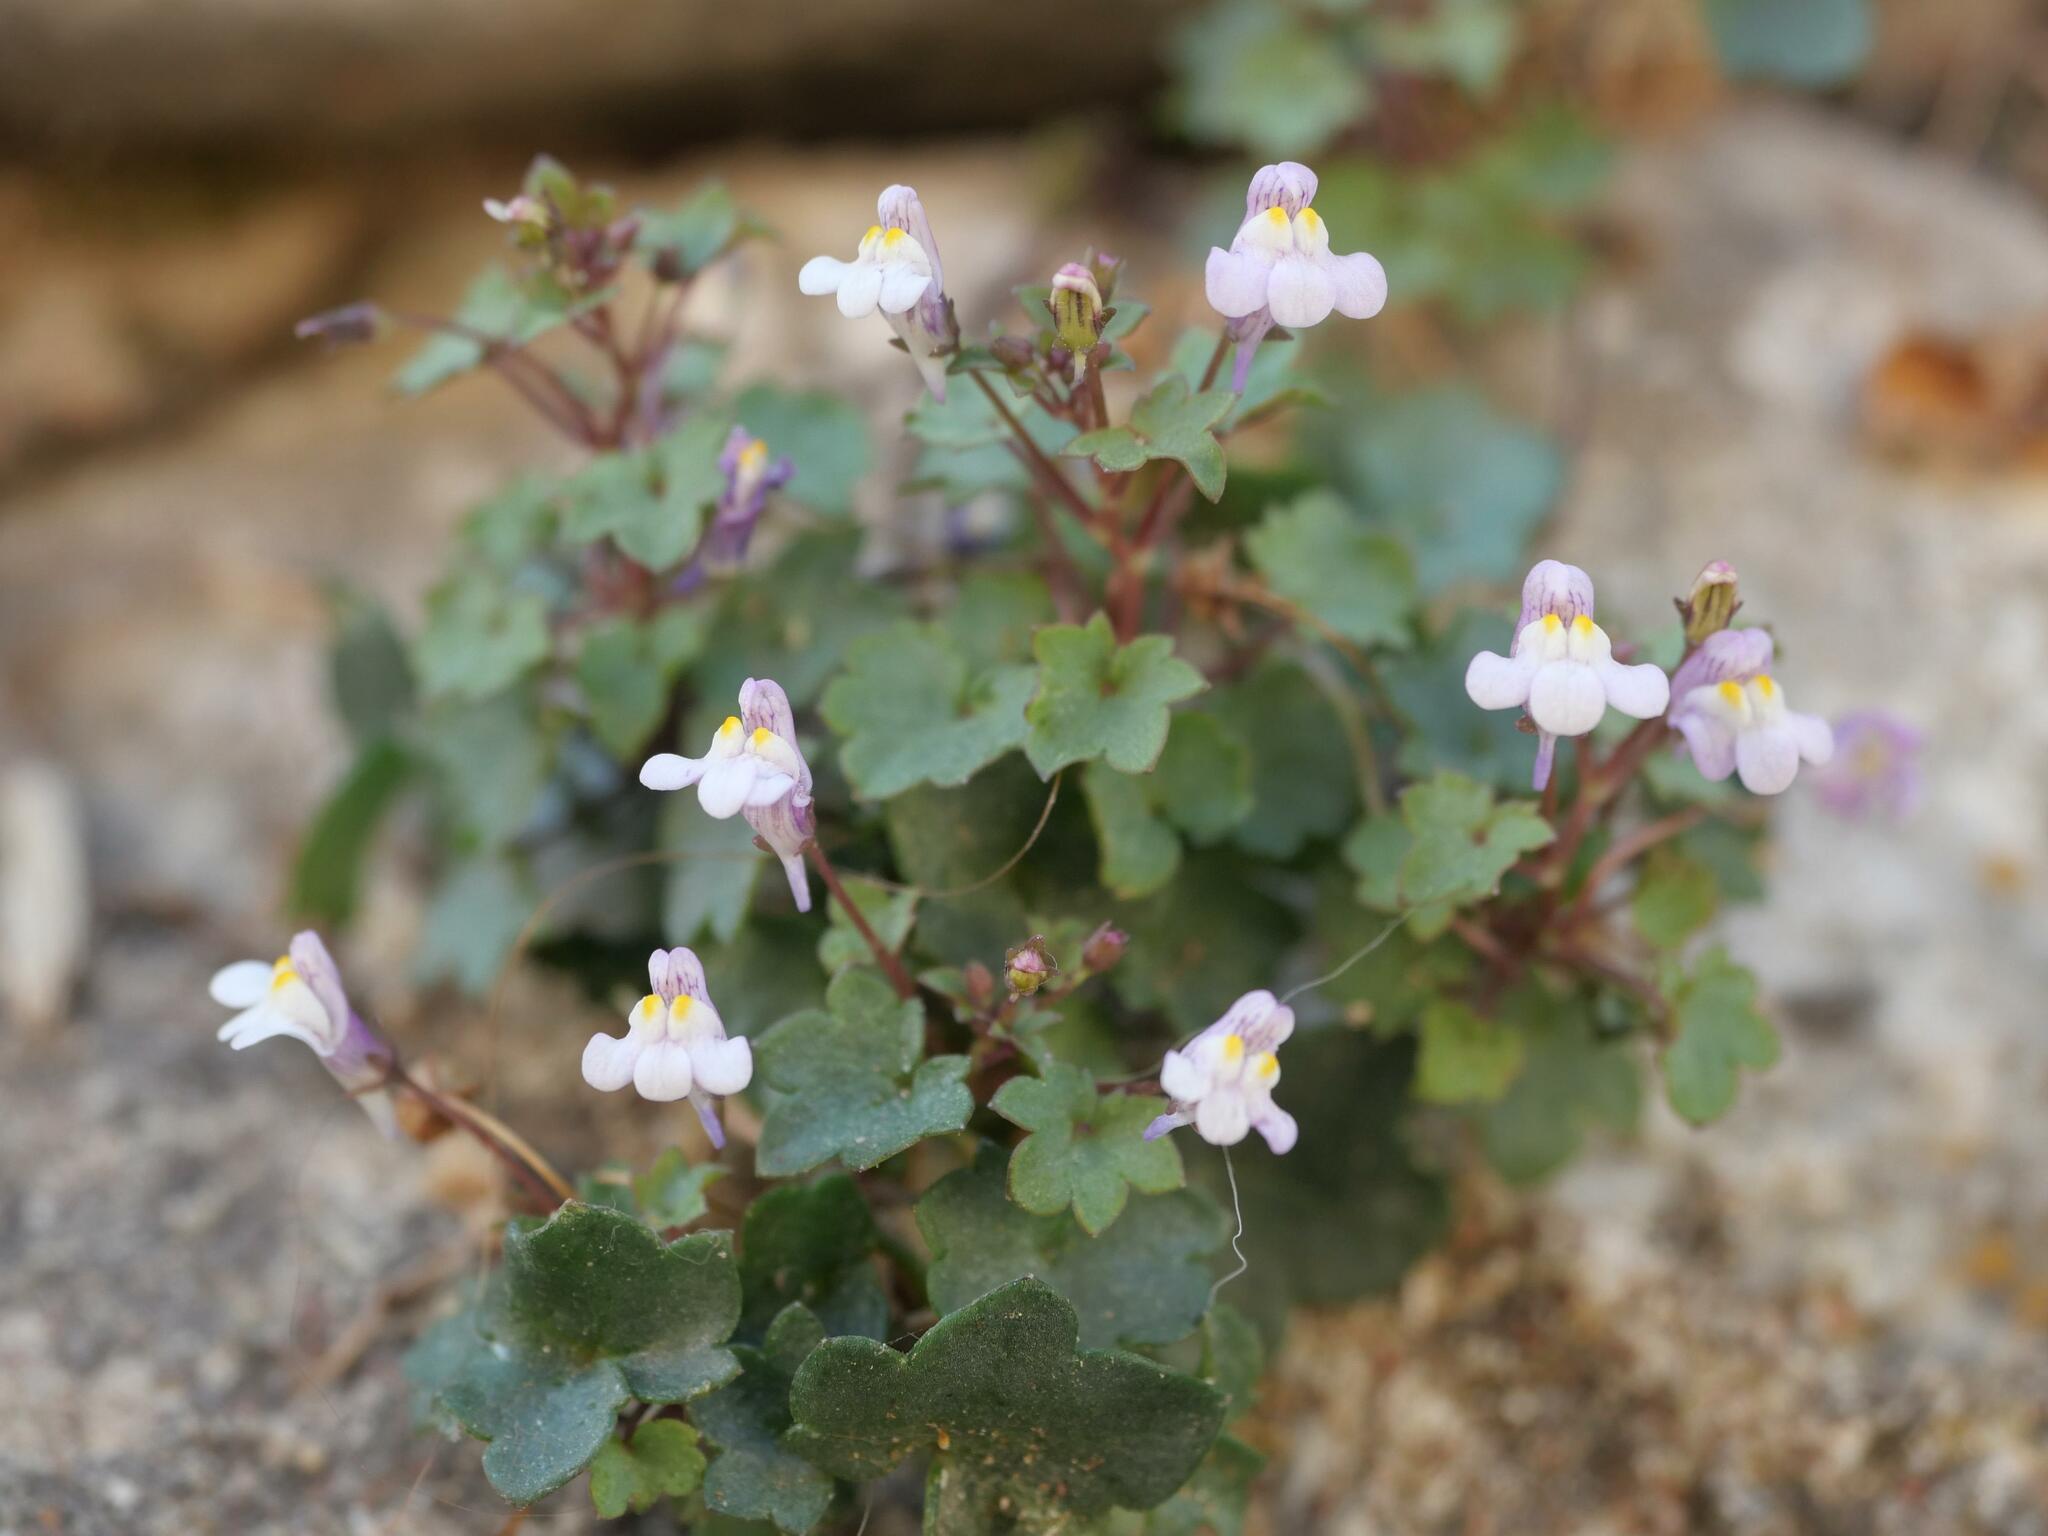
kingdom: Plantae
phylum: Tracheophyta
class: Magnoliopsida
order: Lamiales
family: Plantaginaceae
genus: Cymbalaria
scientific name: Cymbalaria muralis
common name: Ivy-leaved toadflax
